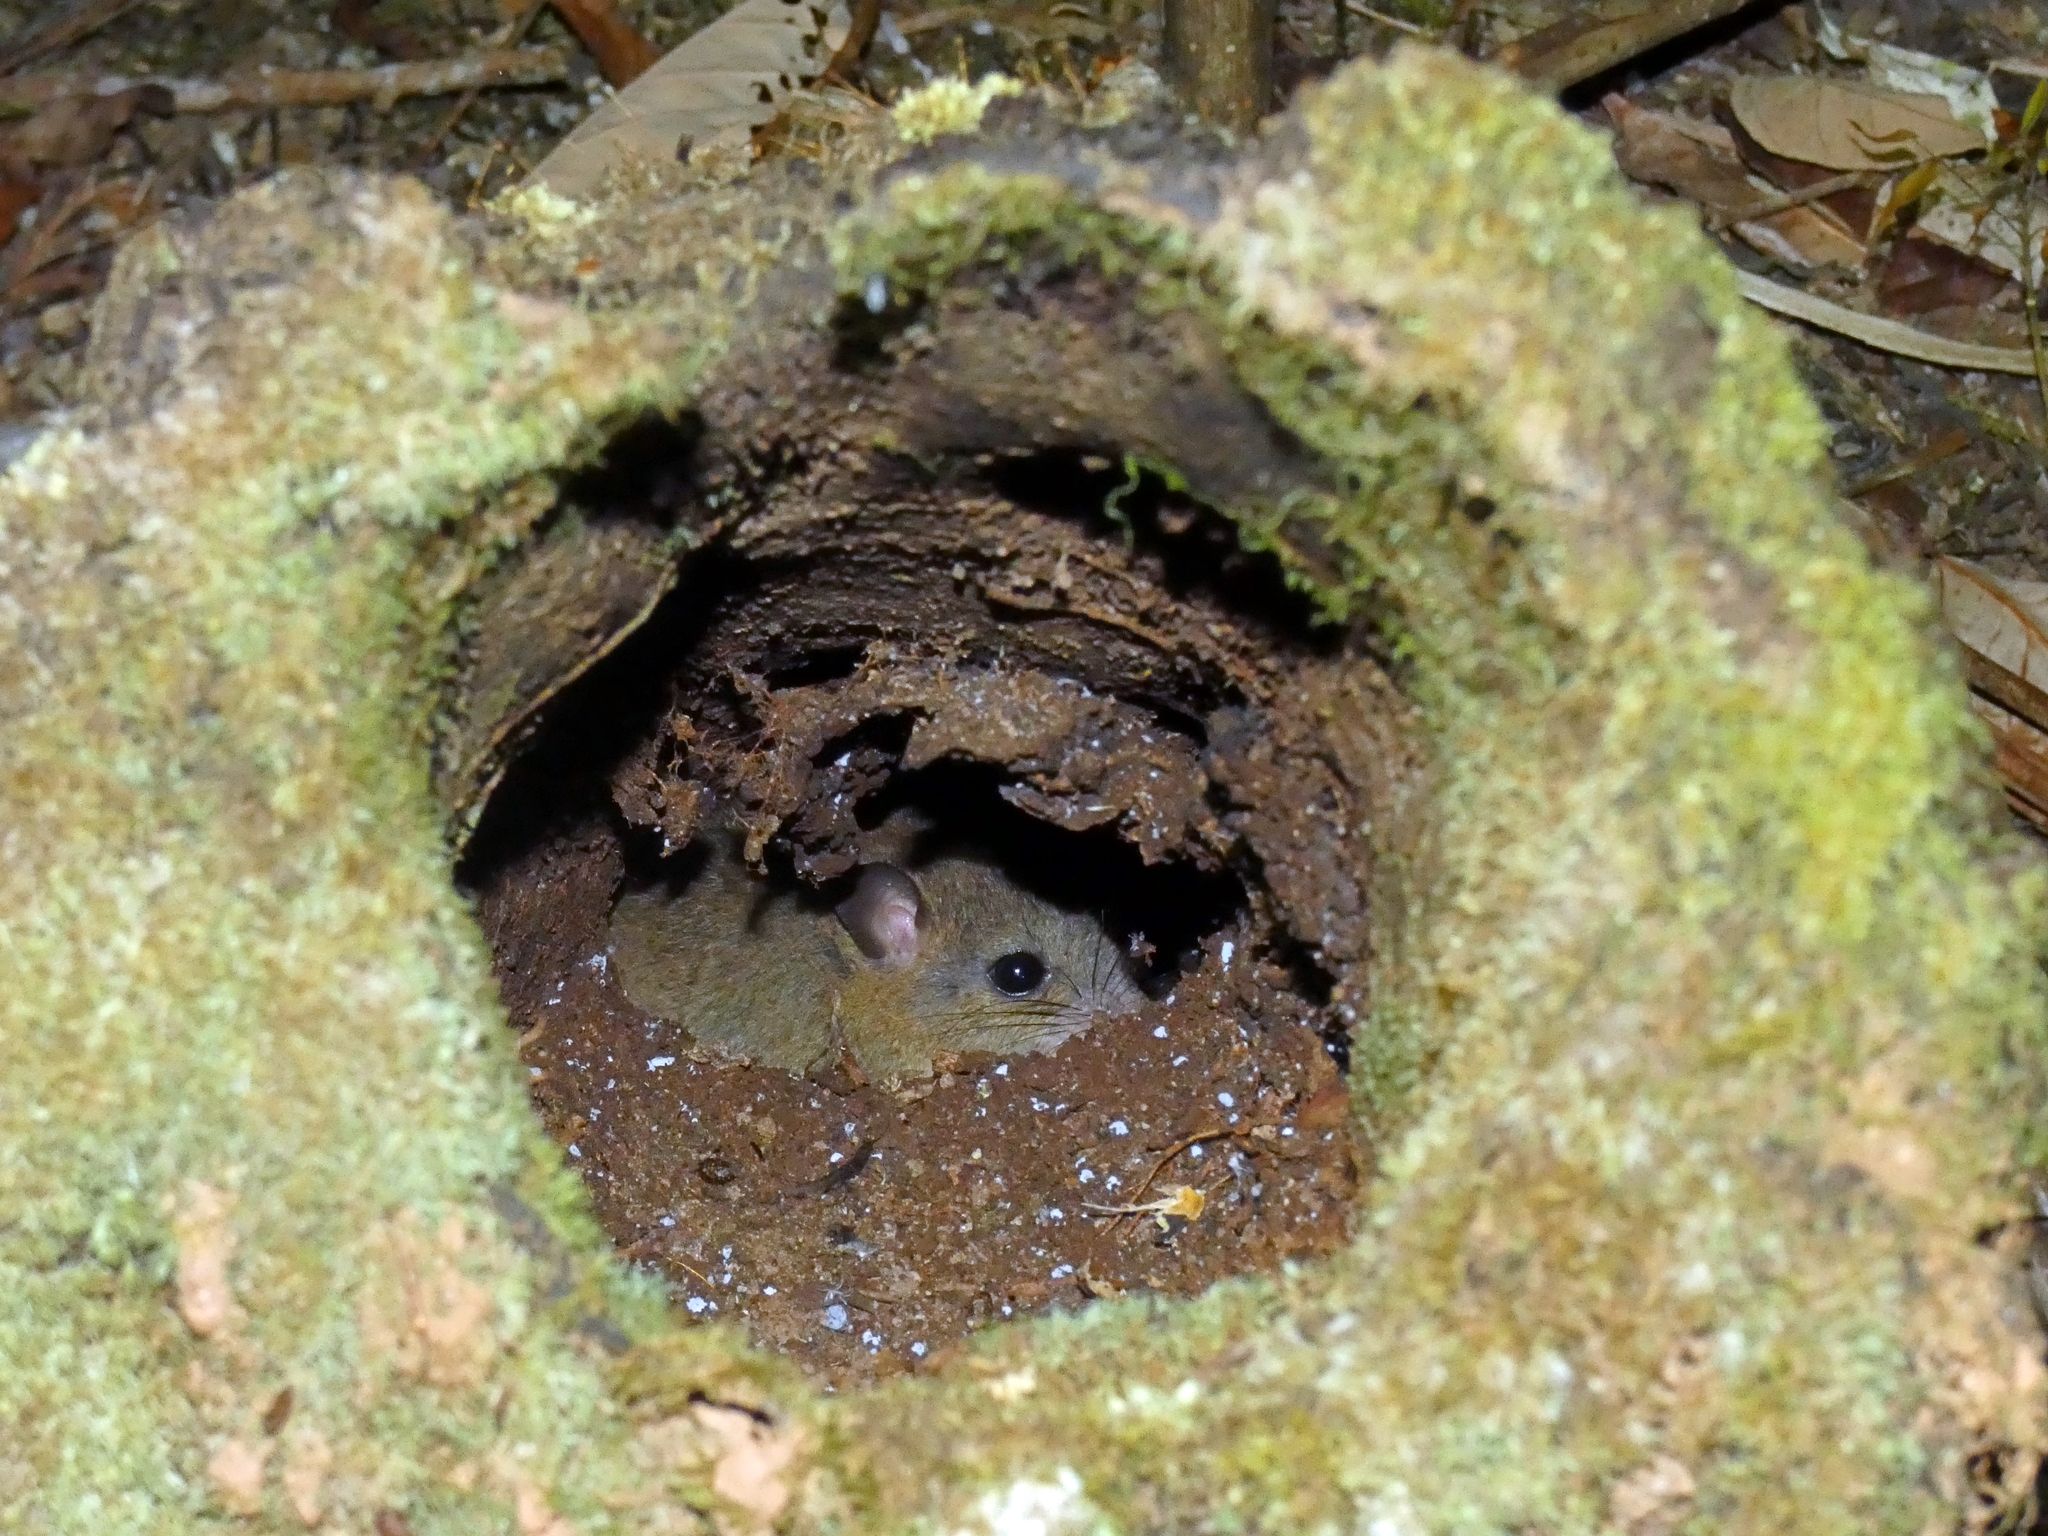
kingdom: Animalia
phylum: Chordata
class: Mammalia
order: Rodentia
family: Muridae
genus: Melomys
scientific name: Melomys cervinipes
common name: Fawn-footed melomys
